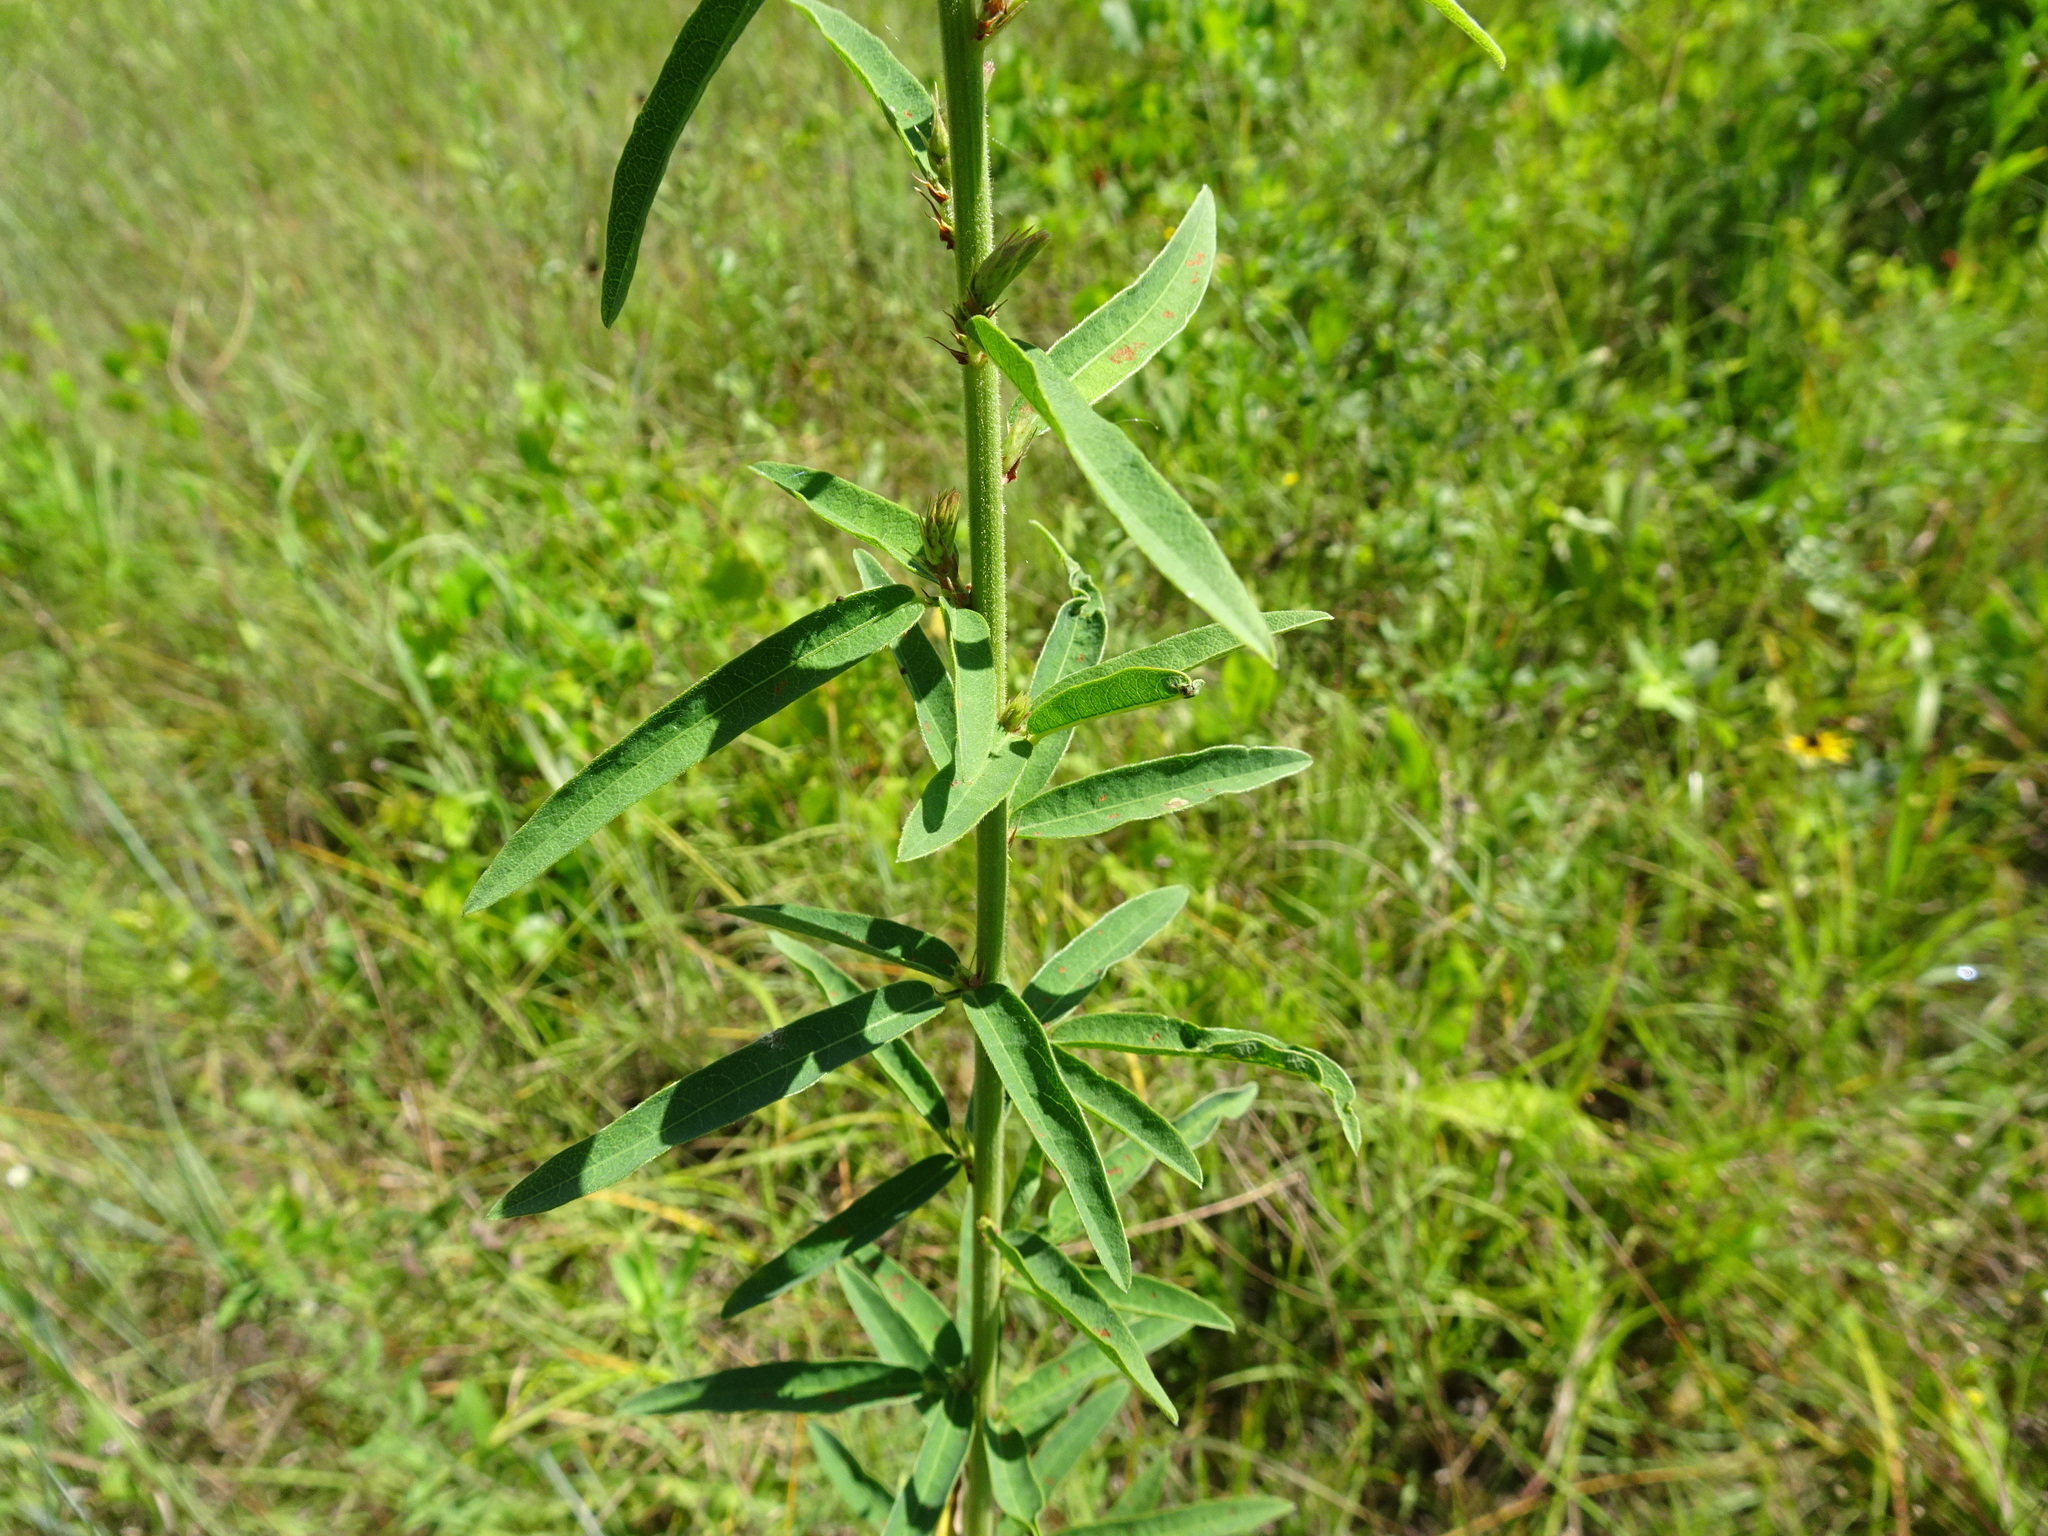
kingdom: Plantae
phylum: Tracheophyta
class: Magnoliopsida
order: Fabales
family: Fabaceae
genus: Desmodium
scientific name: Desmodium sessilifolium
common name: Sessile tick-clover
